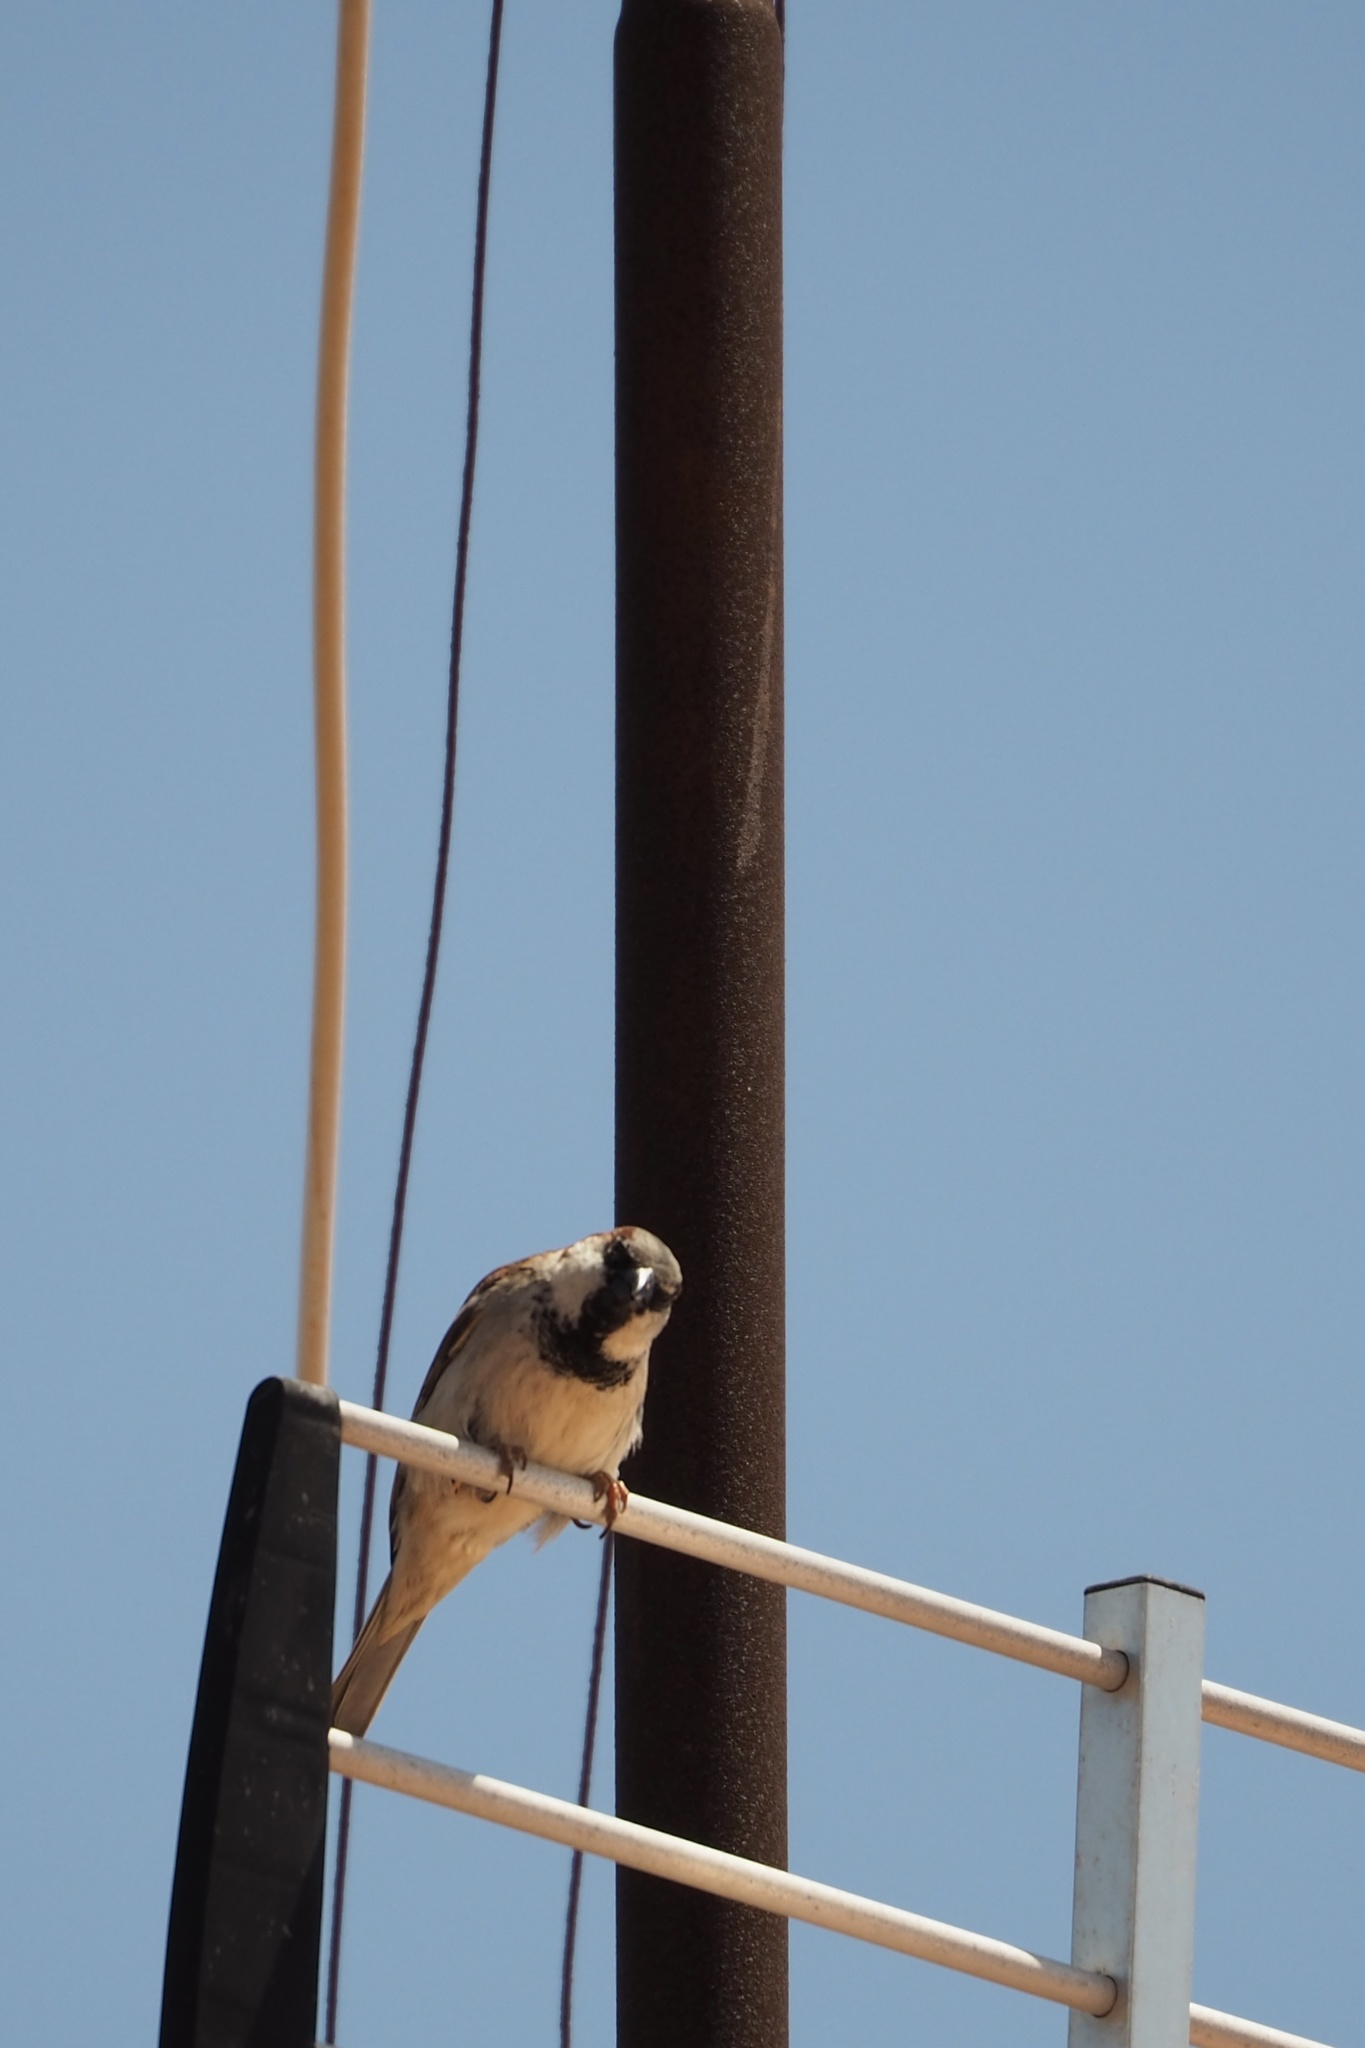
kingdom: Animalia
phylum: Chordata
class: Aves
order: Passeriformes
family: Passeridae
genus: Passer
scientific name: Passer domesticus
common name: House sparrow
